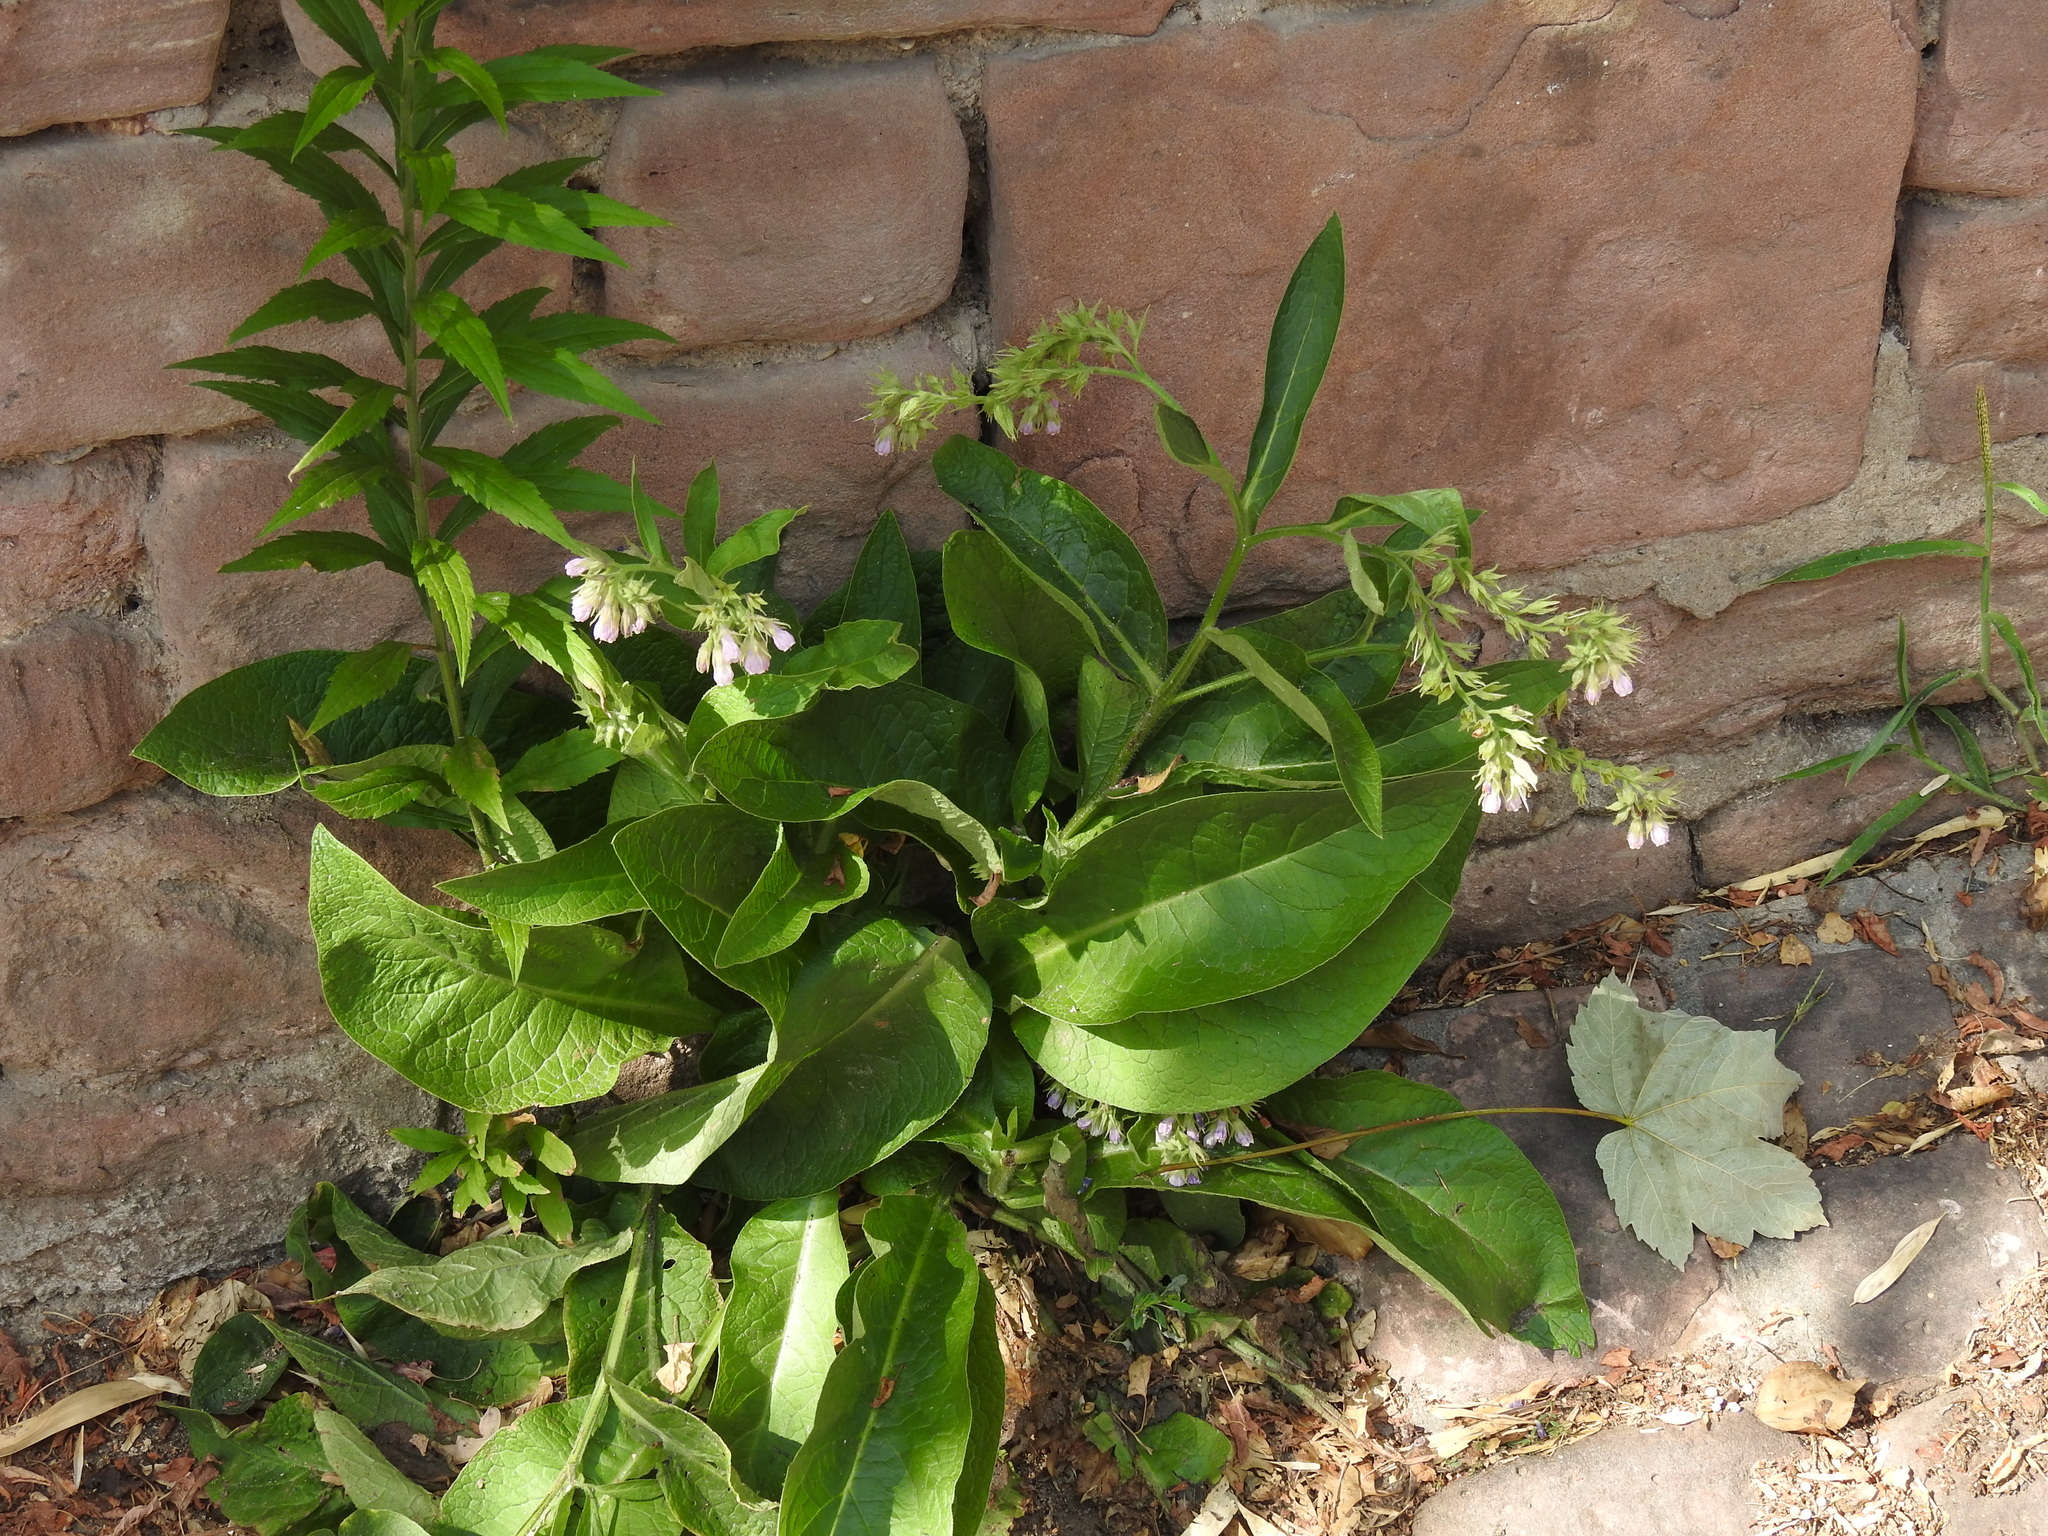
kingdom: Plantae
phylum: Tracheophyta
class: Magnoliopsida
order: Boraginales
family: Boraginaceae
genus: Symphytum
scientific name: Symphytum officinale
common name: Common comfrey
